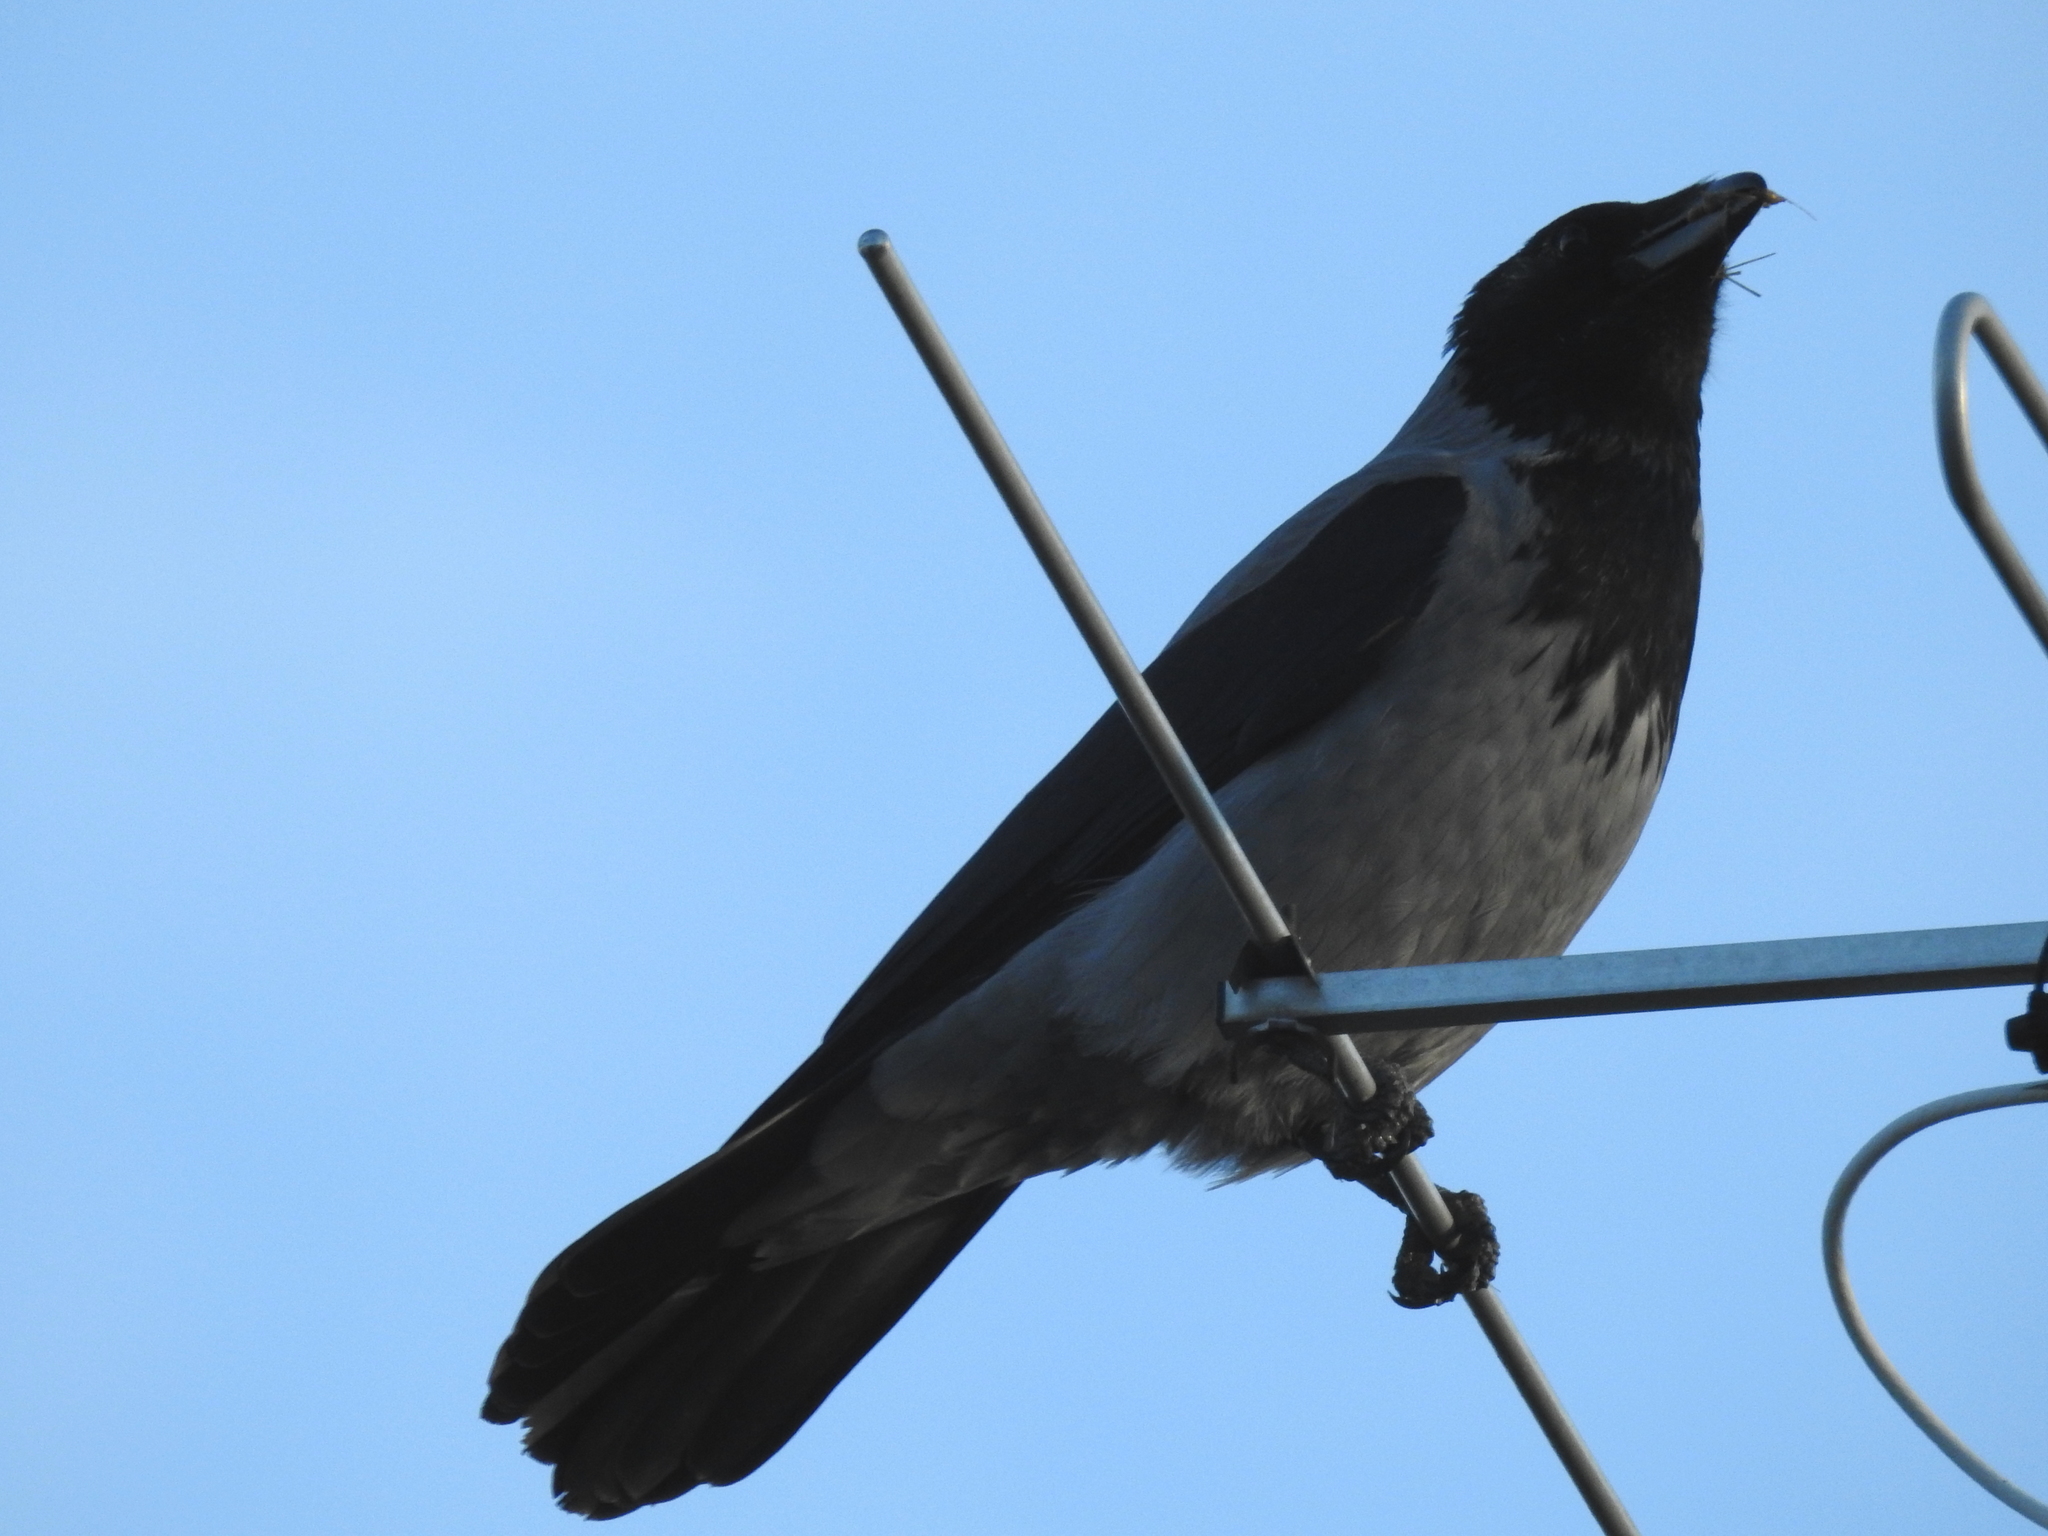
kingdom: Animalia
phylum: Chordata
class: Aves
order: Passeriformes
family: Corvidae
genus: Corvus
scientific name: Corvus cornix
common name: Hooded crow
